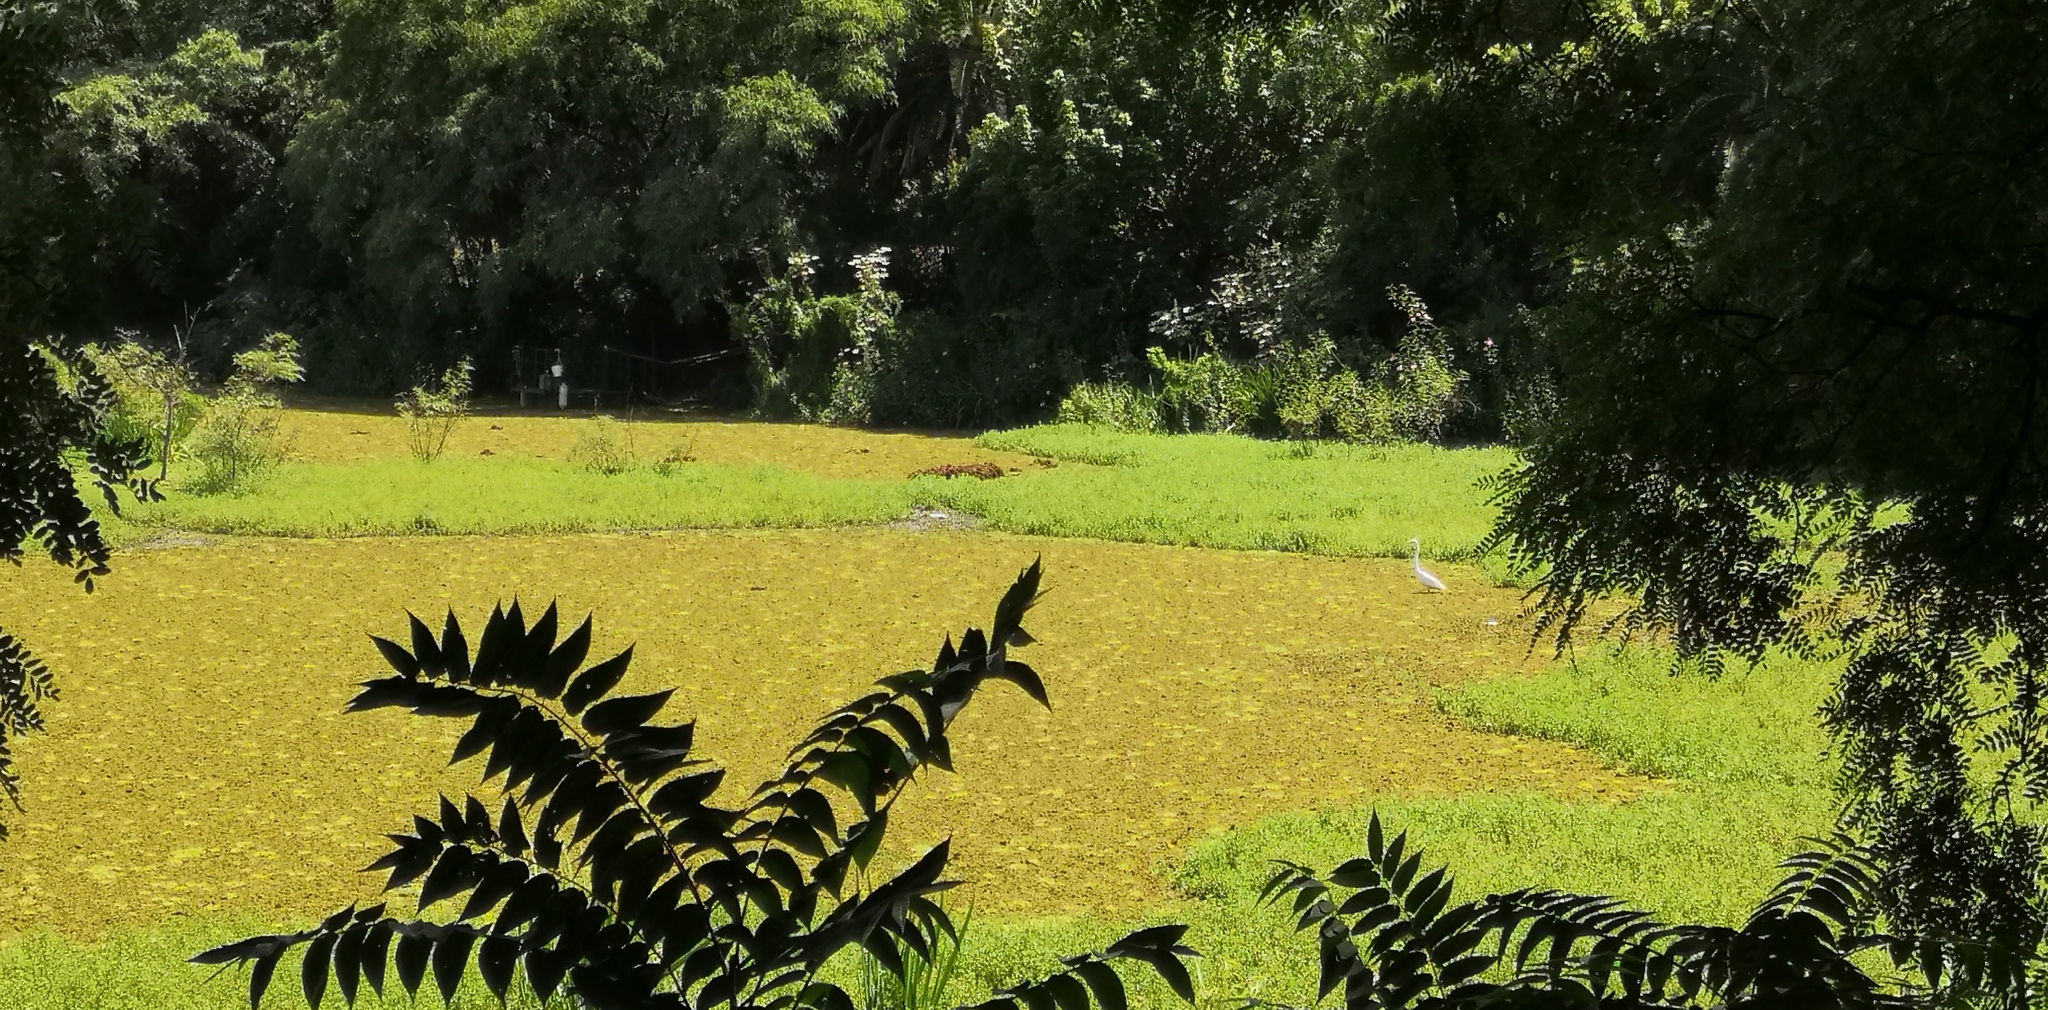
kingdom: Animalia
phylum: Chordata
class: Aves
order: Pelecaniformes
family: Ardeidae
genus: Ardea
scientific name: Ardea alba
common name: Great egret
